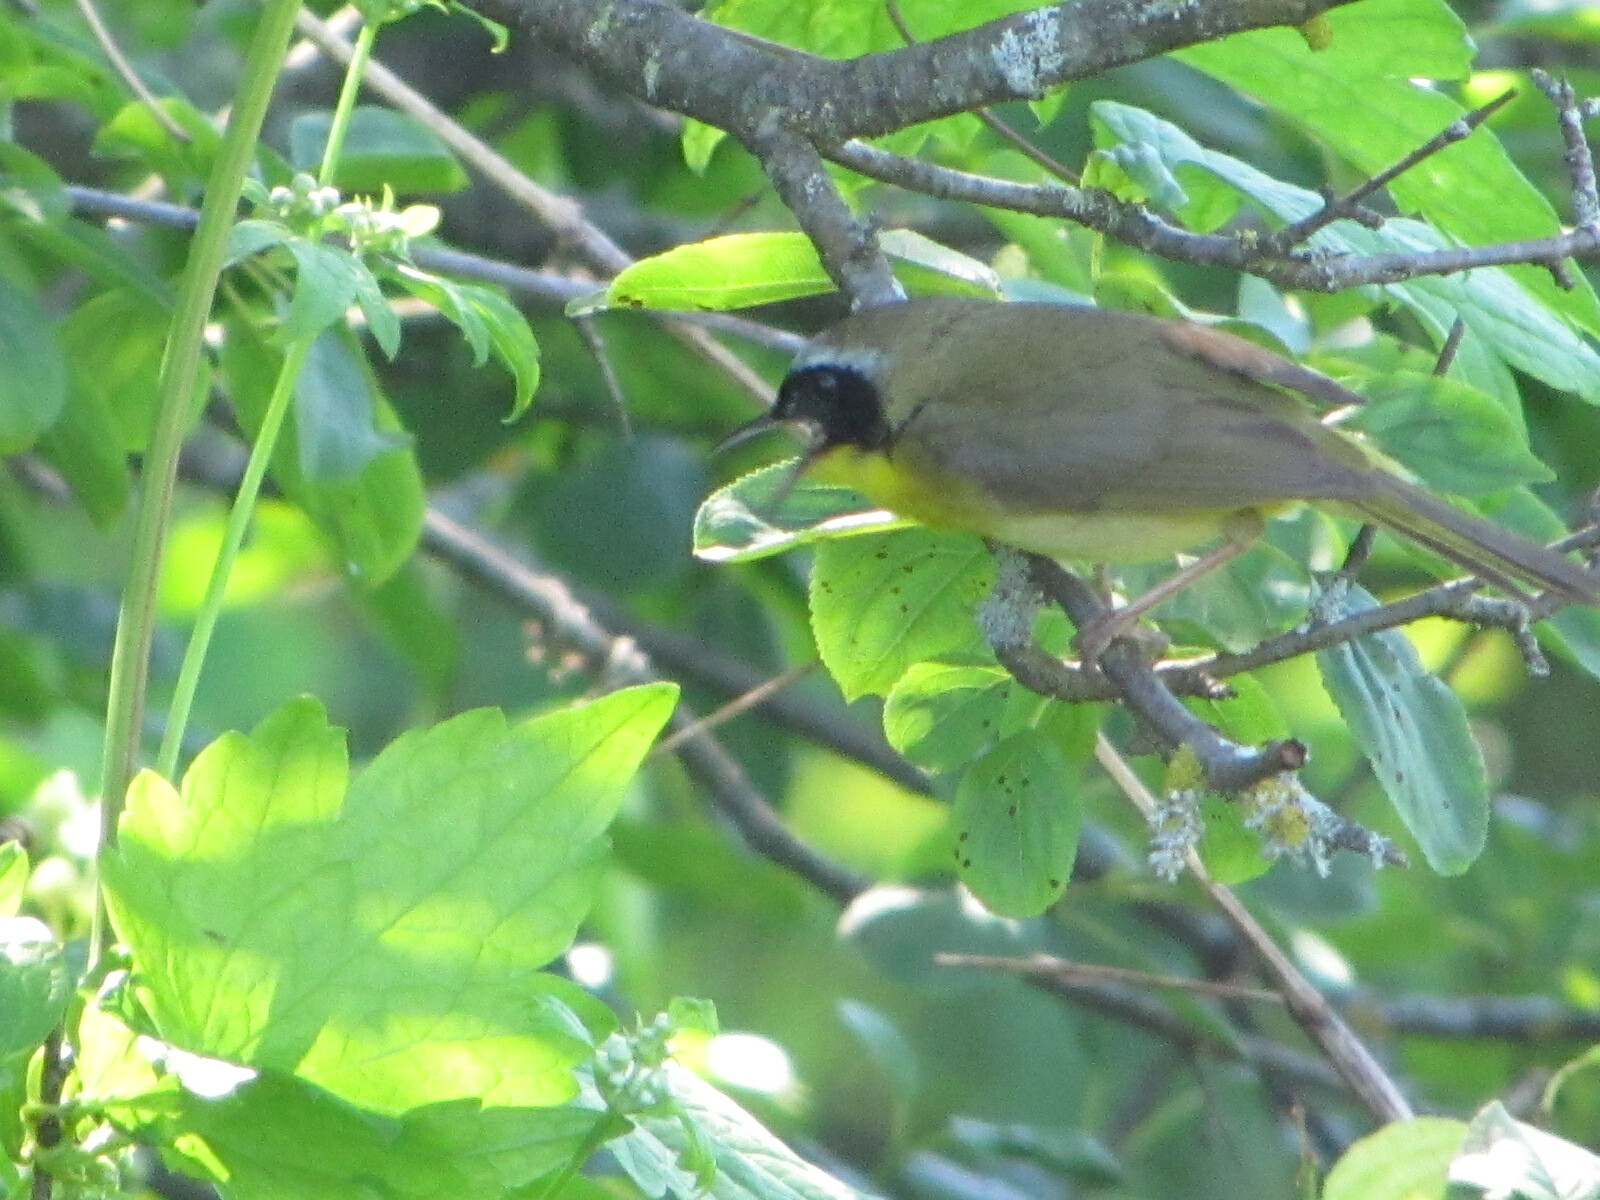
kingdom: Animalia
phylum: Chordata
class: Aves
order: Passeriformes
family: Parulidae
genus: Geothlypis
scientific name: Geothlypis trichas
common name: Common yellowthroat
